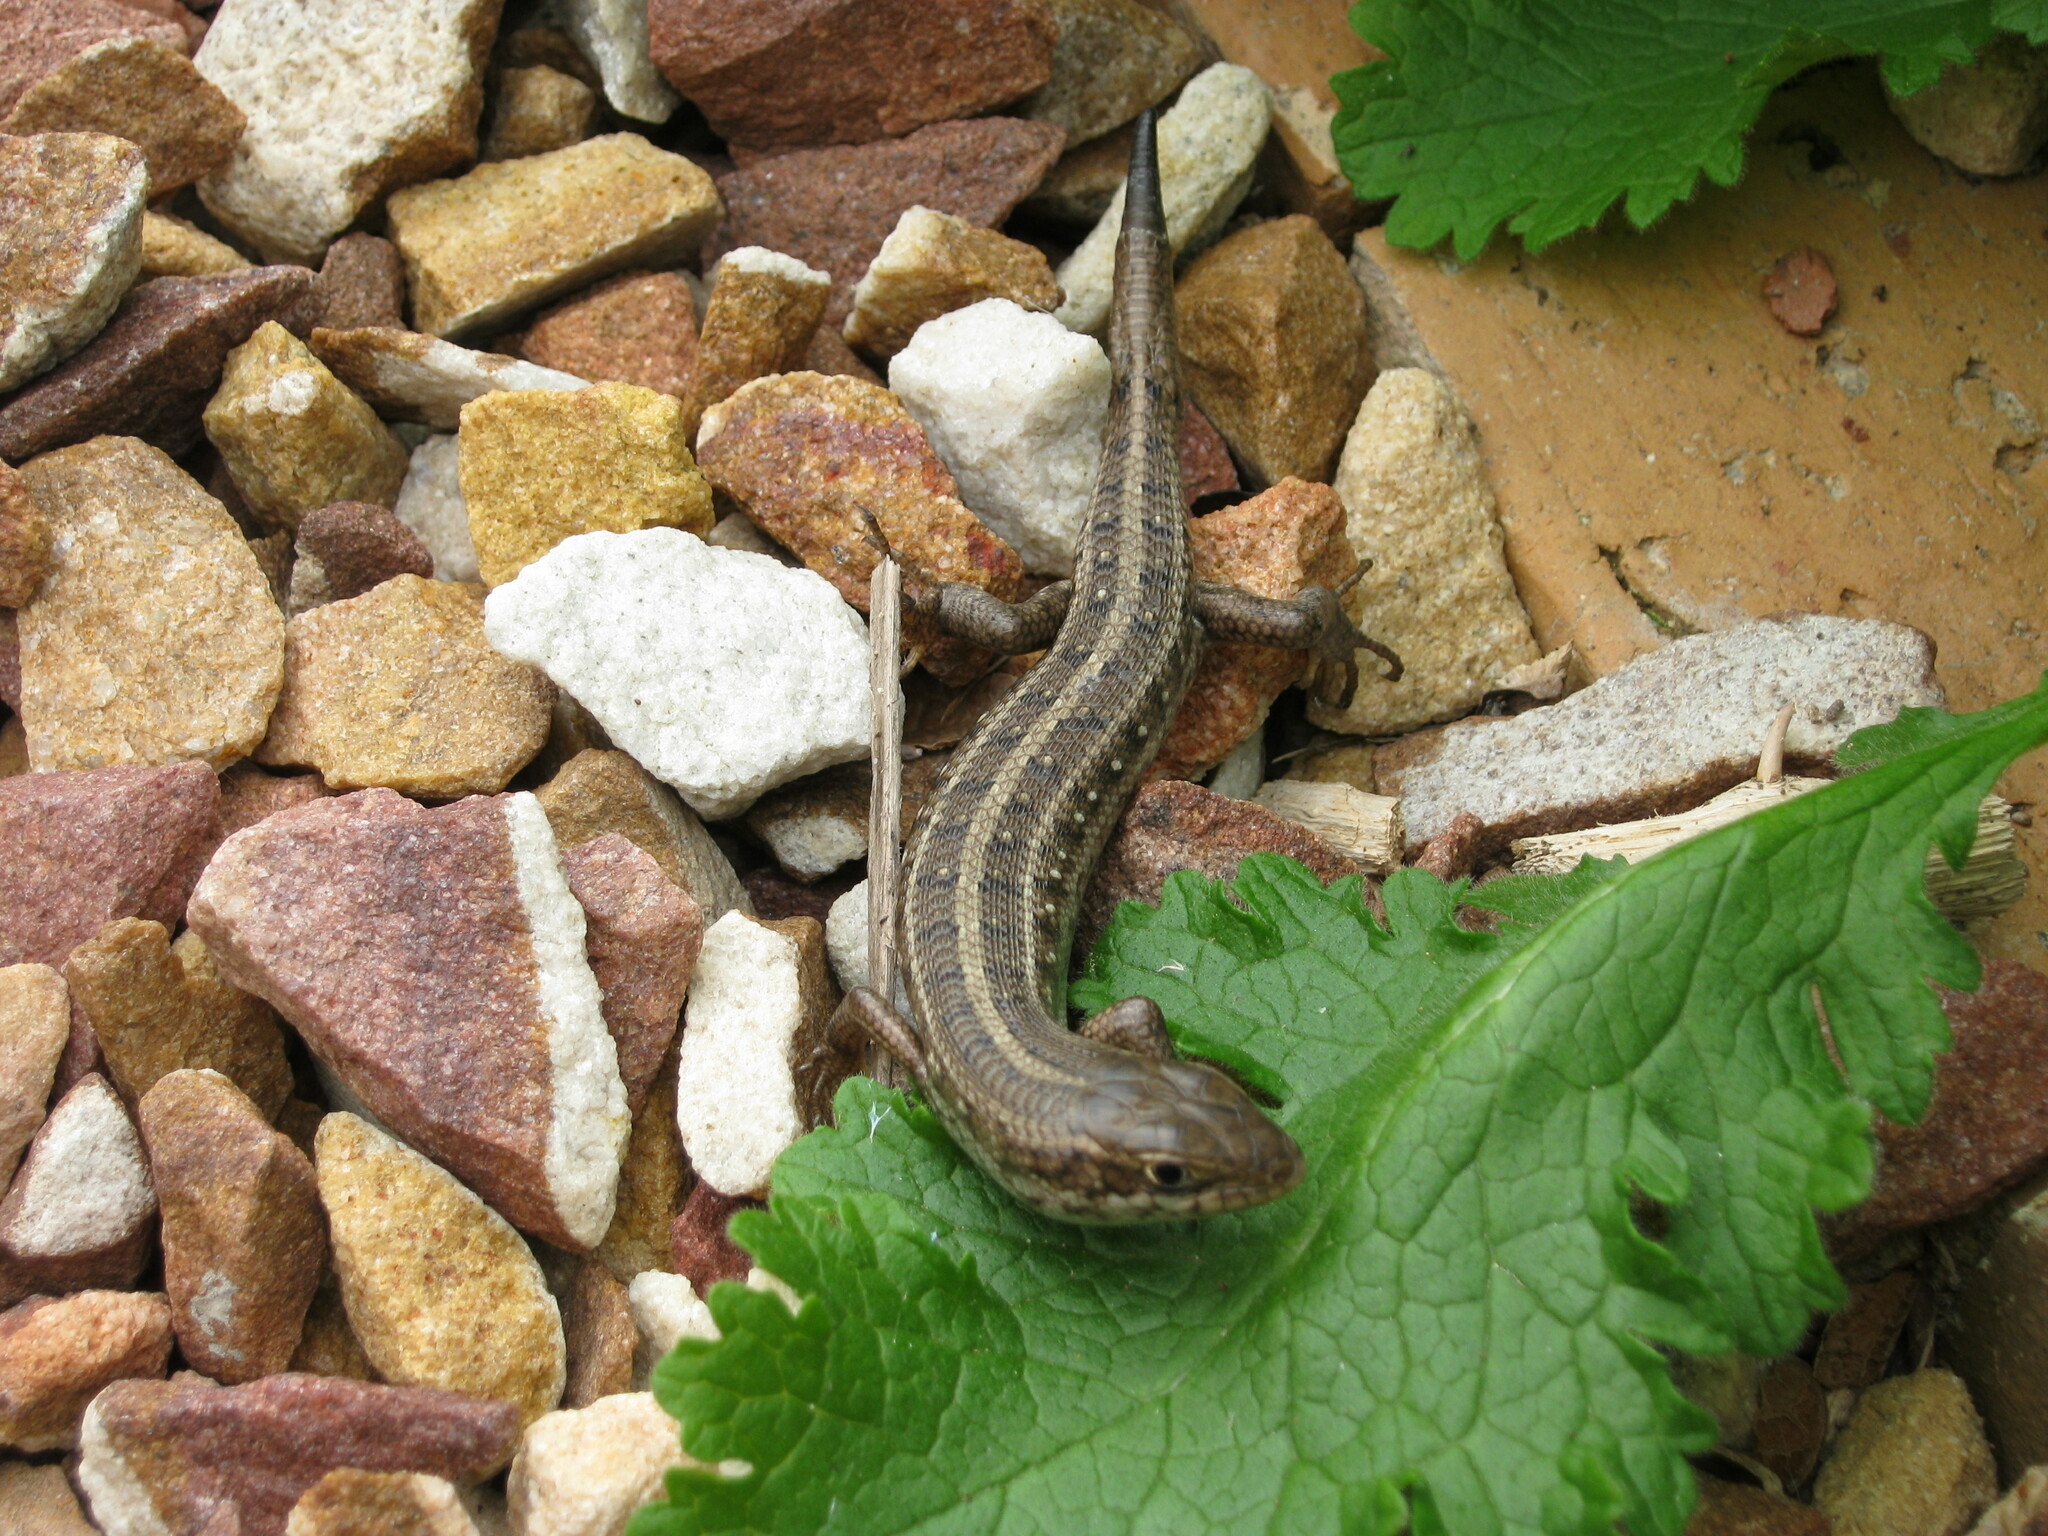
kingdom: Animalia
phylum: Chordata
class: Squamata
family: Scincidae
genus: Trachylepis
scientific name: Trachylepis capensis
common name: Cape skink
